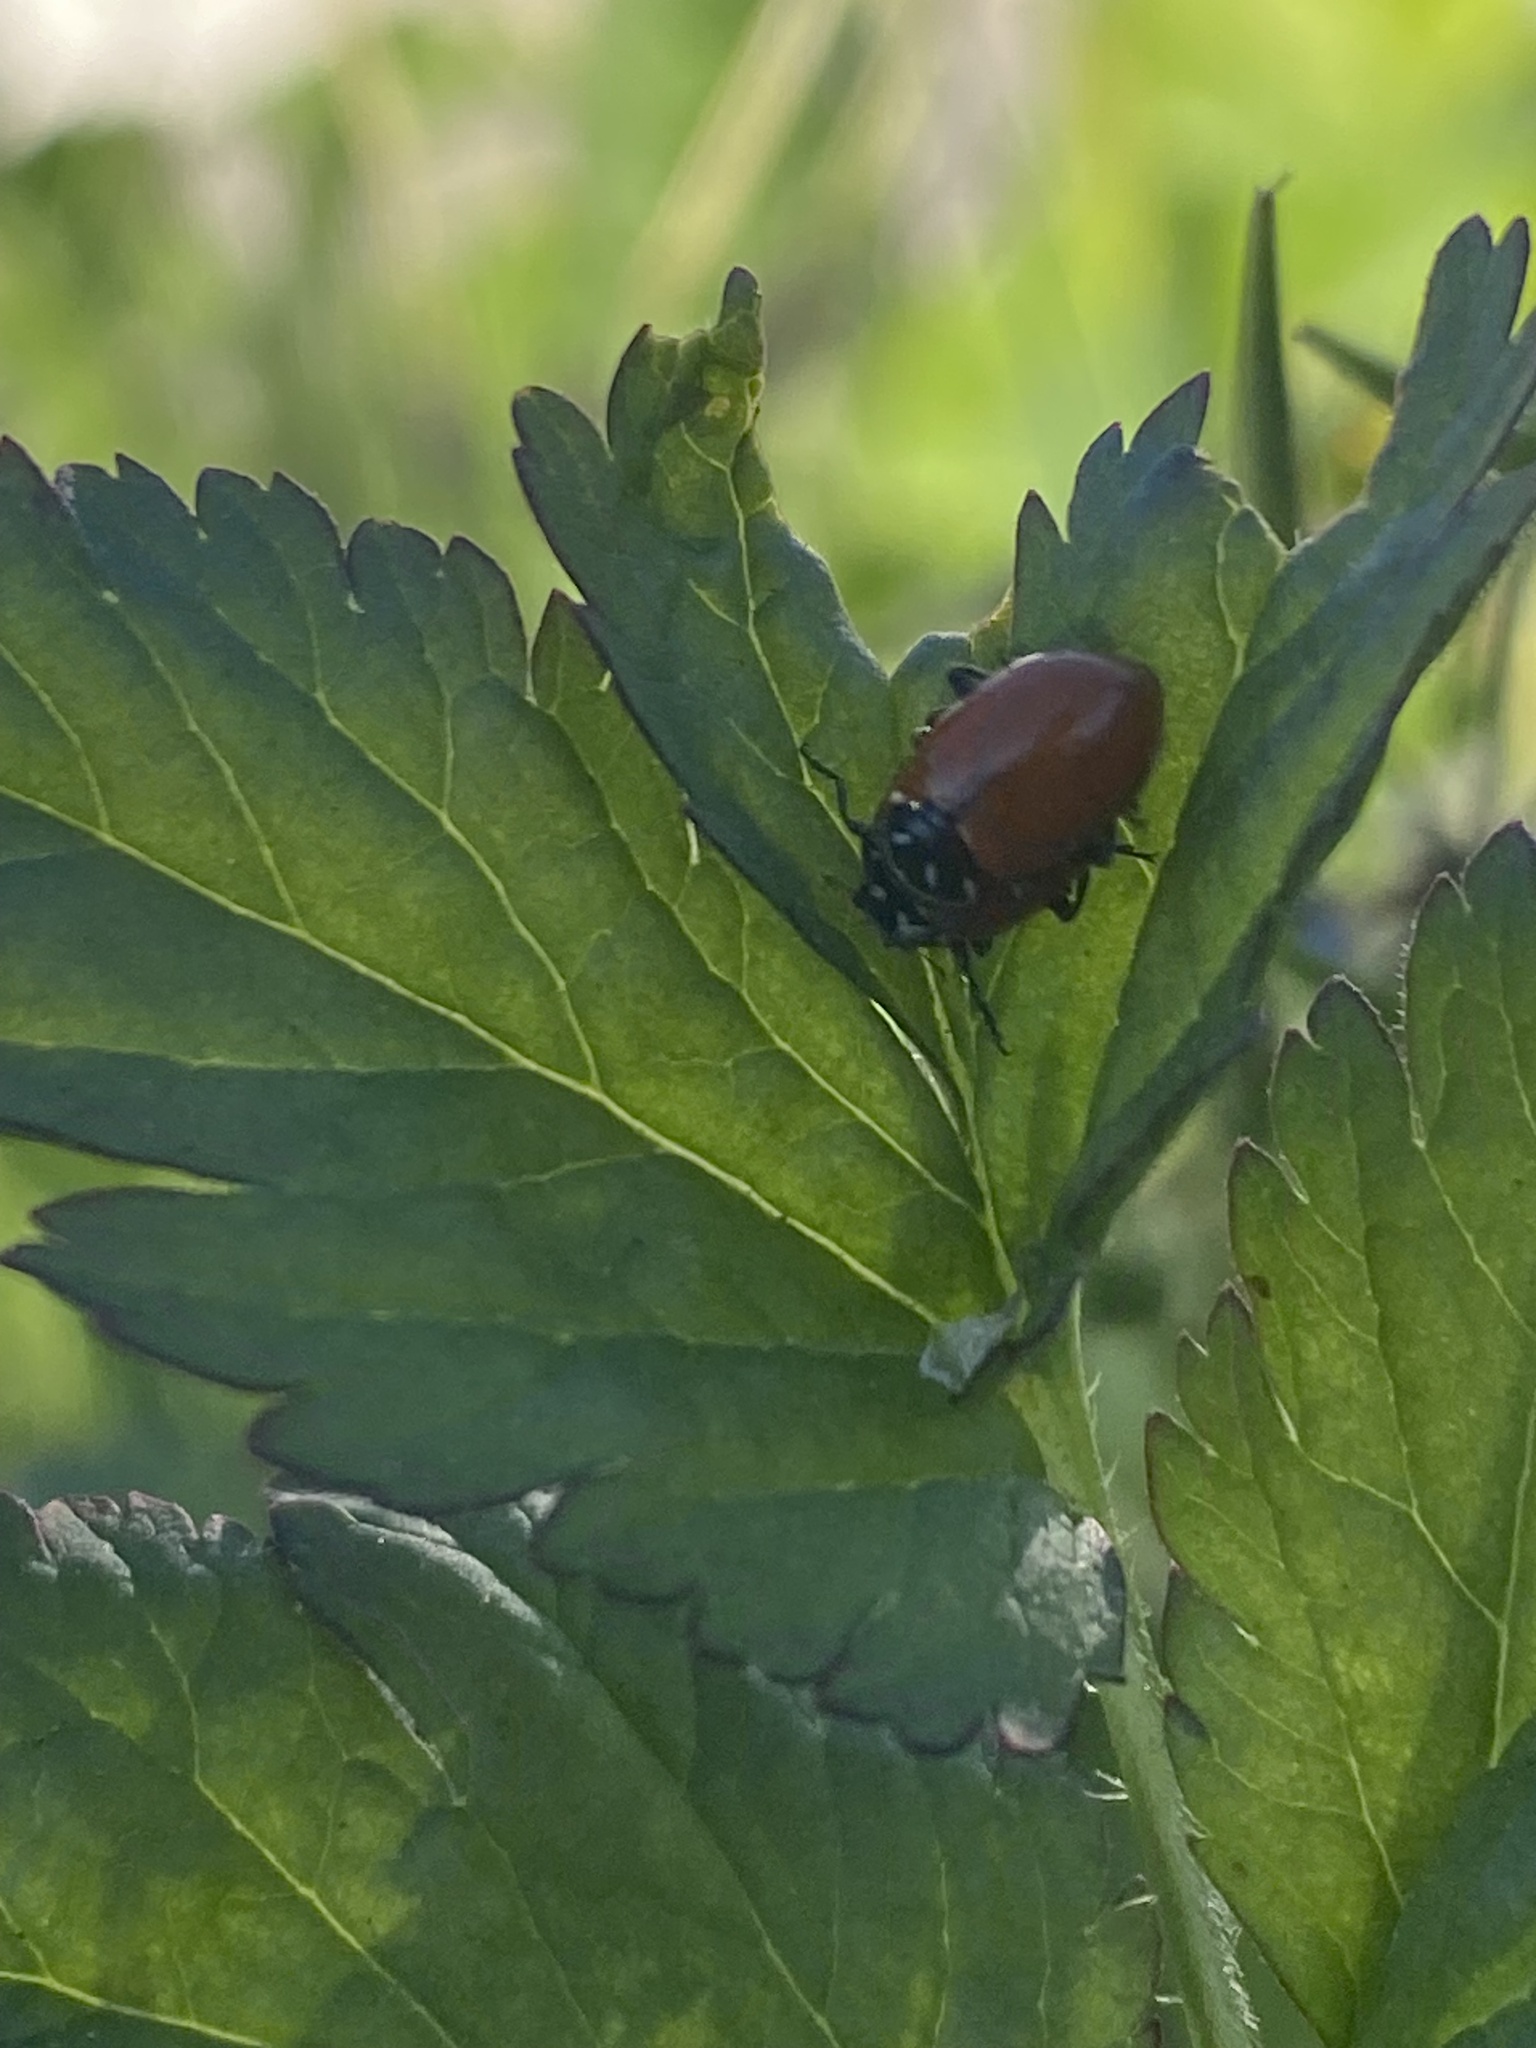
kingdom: Animalia
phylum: Arthropoda
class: Insecta
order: Coleoptera
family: Coccinellidae
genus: Hippodamia
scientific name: Hippodamia convergens
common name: Convergent lady beetle
